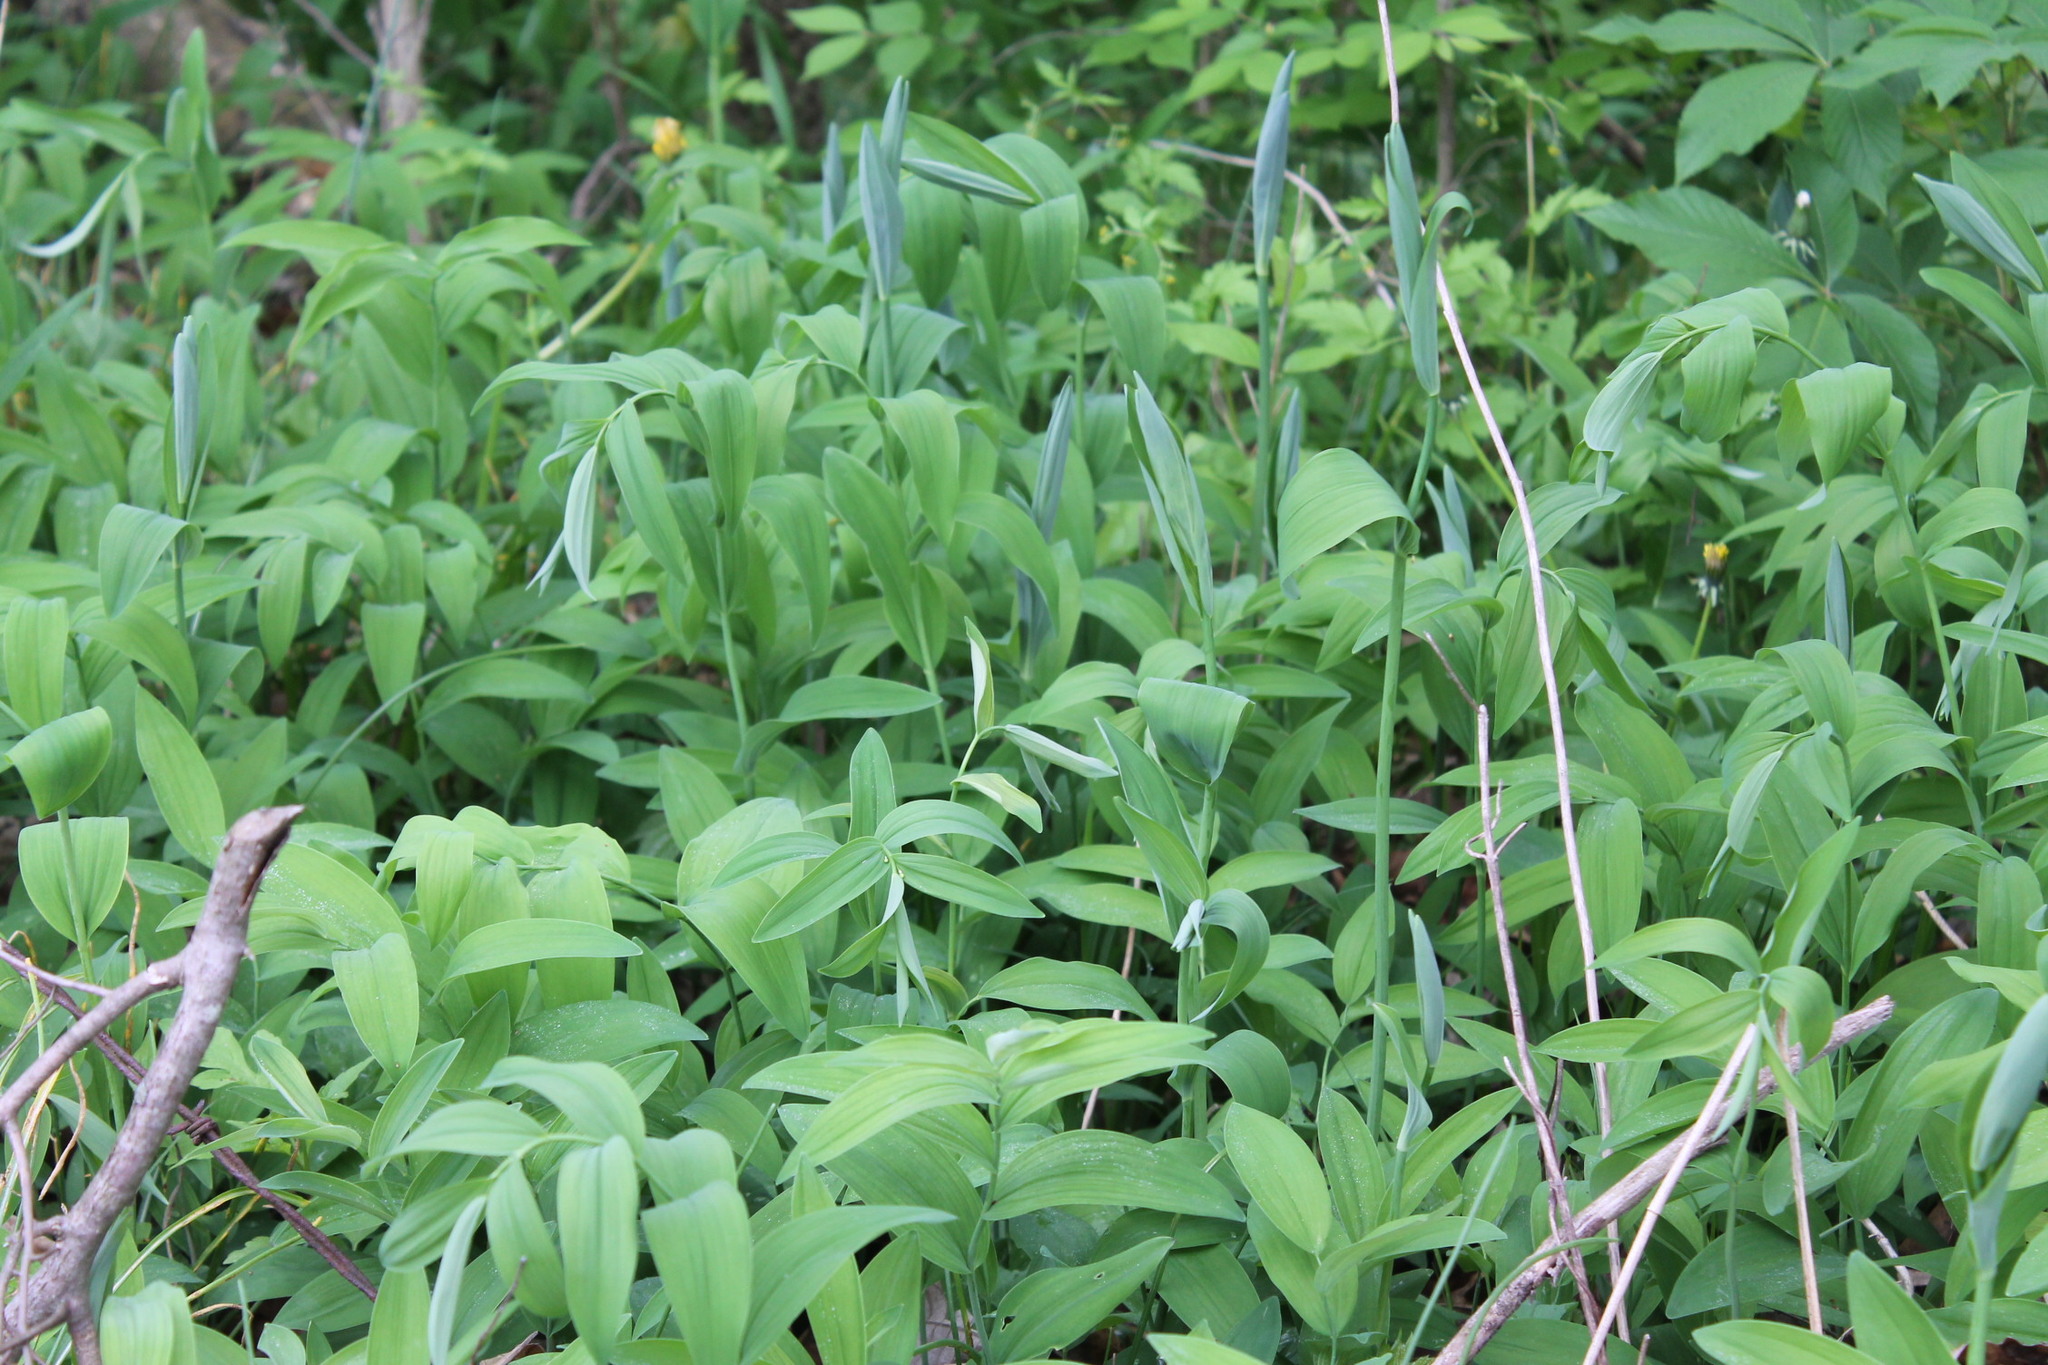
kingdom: Plantae
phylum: Tracheophyta
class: Liliopsida
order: Asparagales
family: Asparagaceae
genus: Polygonatum
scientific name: Polygonatum biflorum
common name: American solomon's-seal
